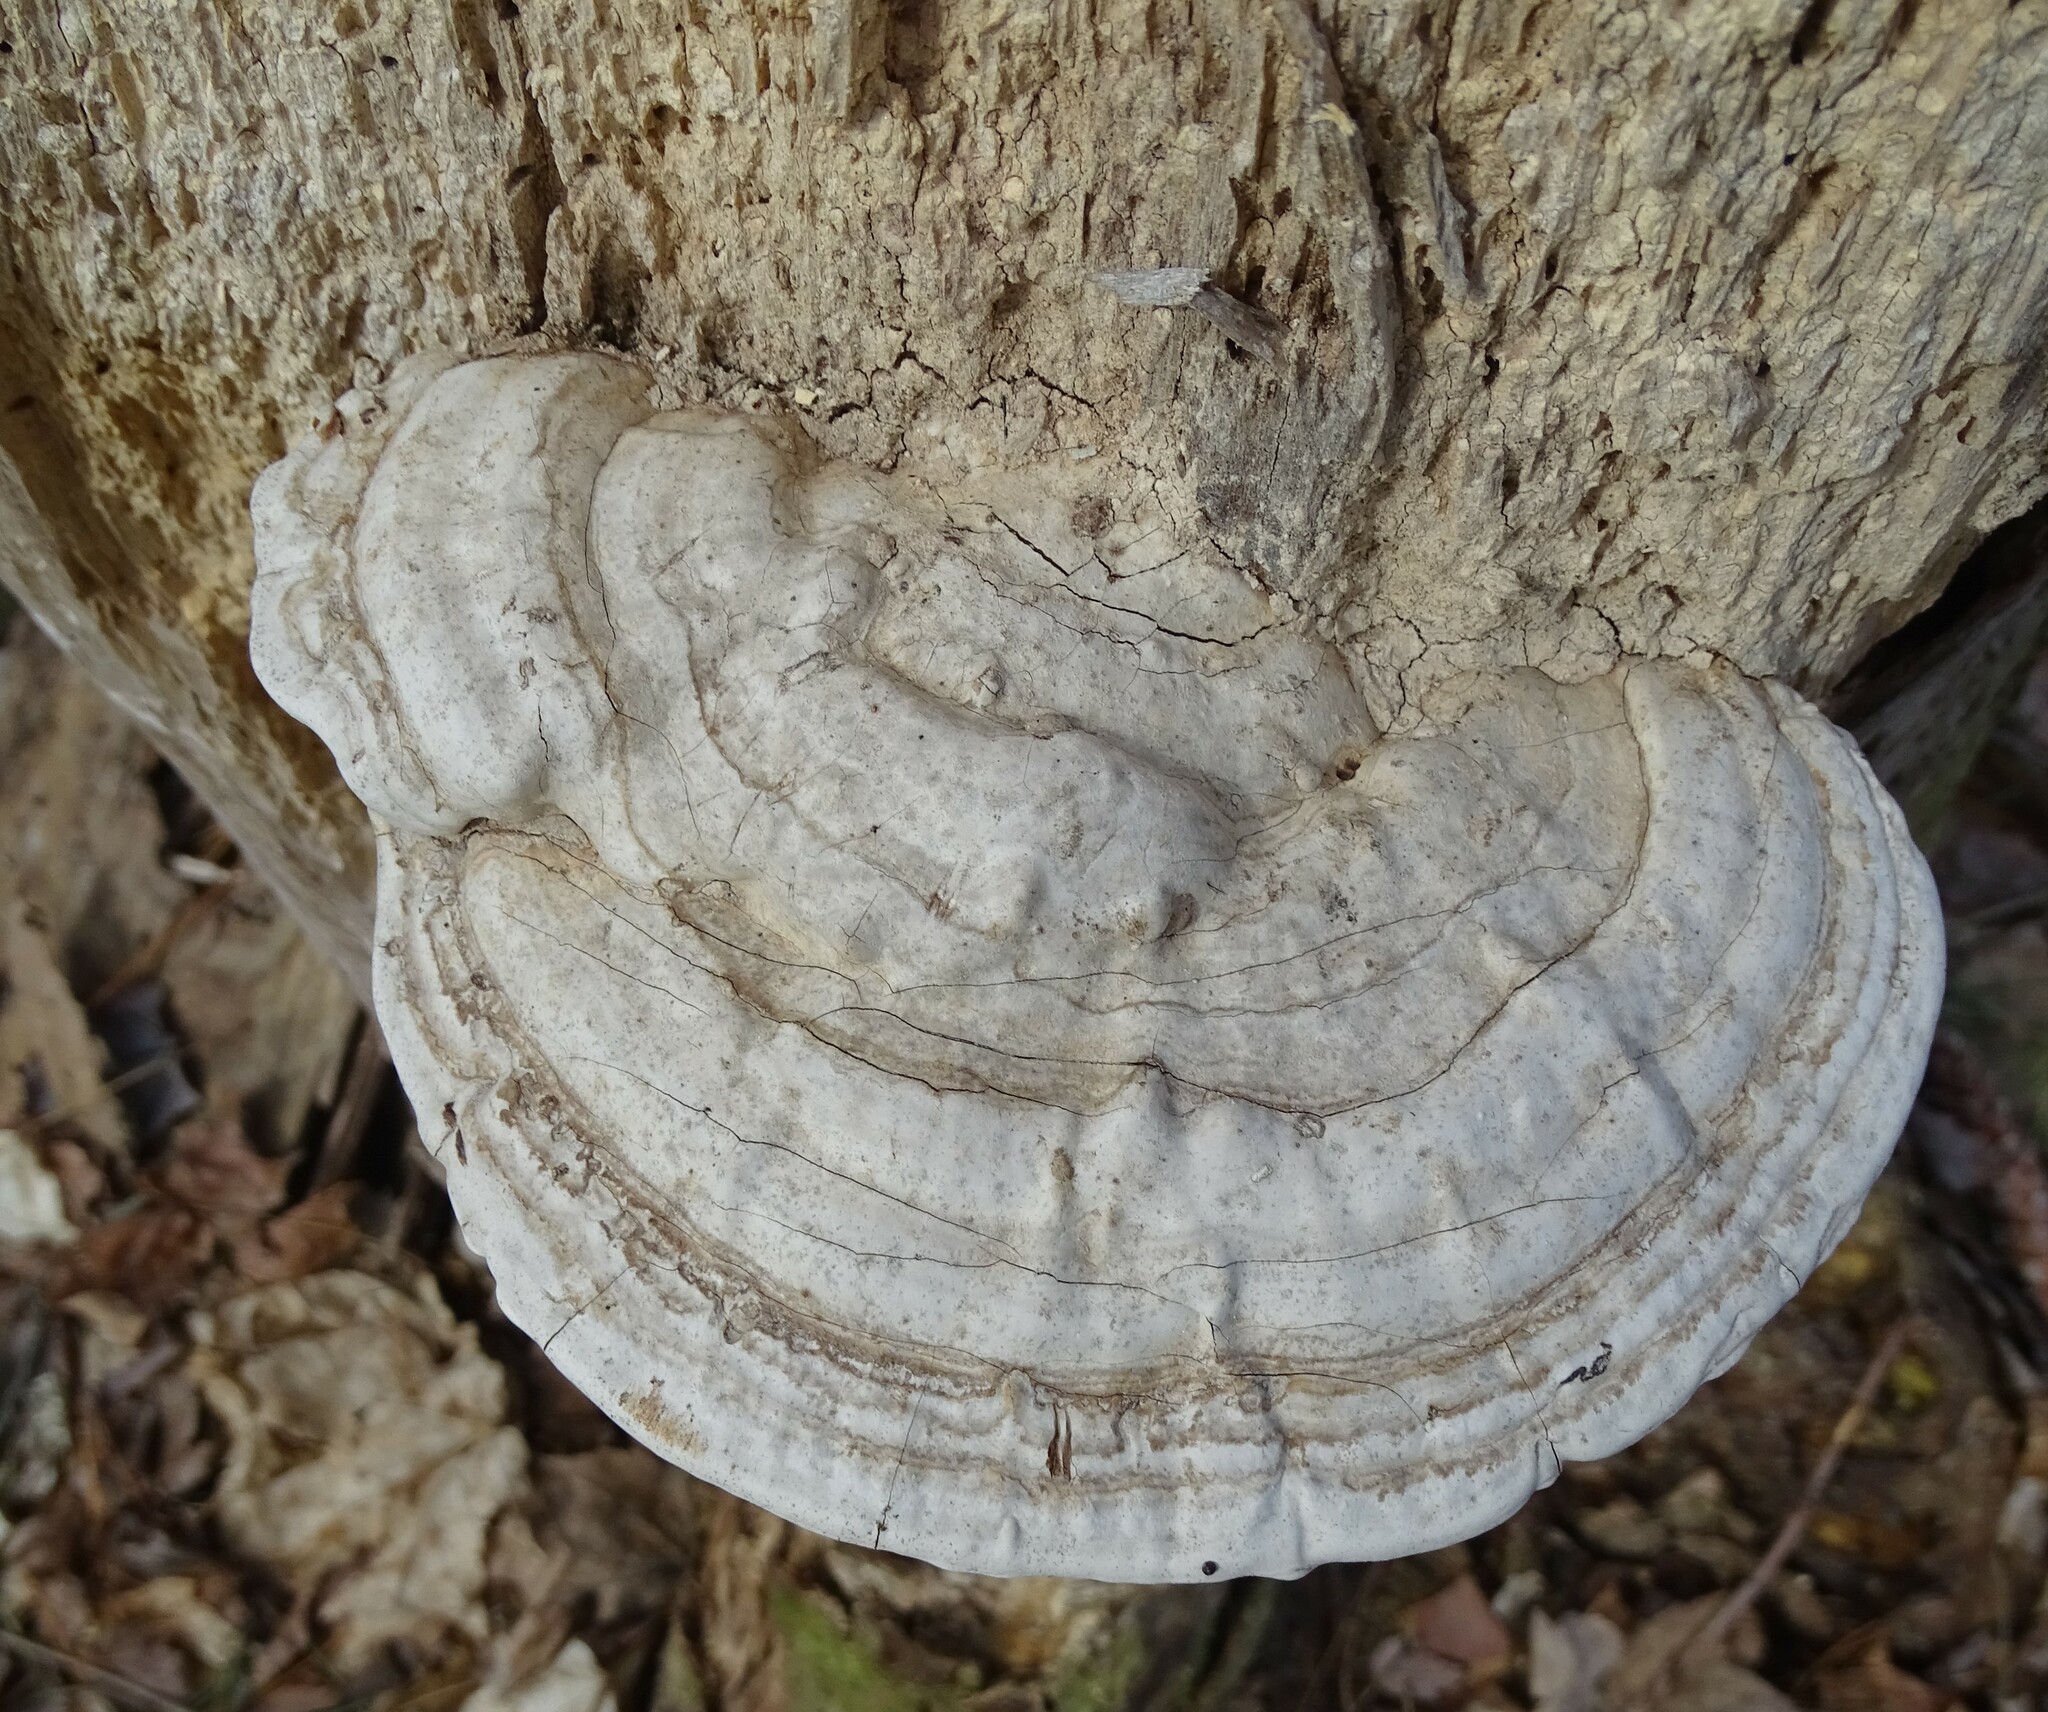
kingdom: Fungi
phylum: Basidiomycota
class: Agaricomycetes
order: Polyporales
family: Polyporaceae
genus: Ganoderma
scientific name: Ganoderma applanatum
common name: Artist's bracket
